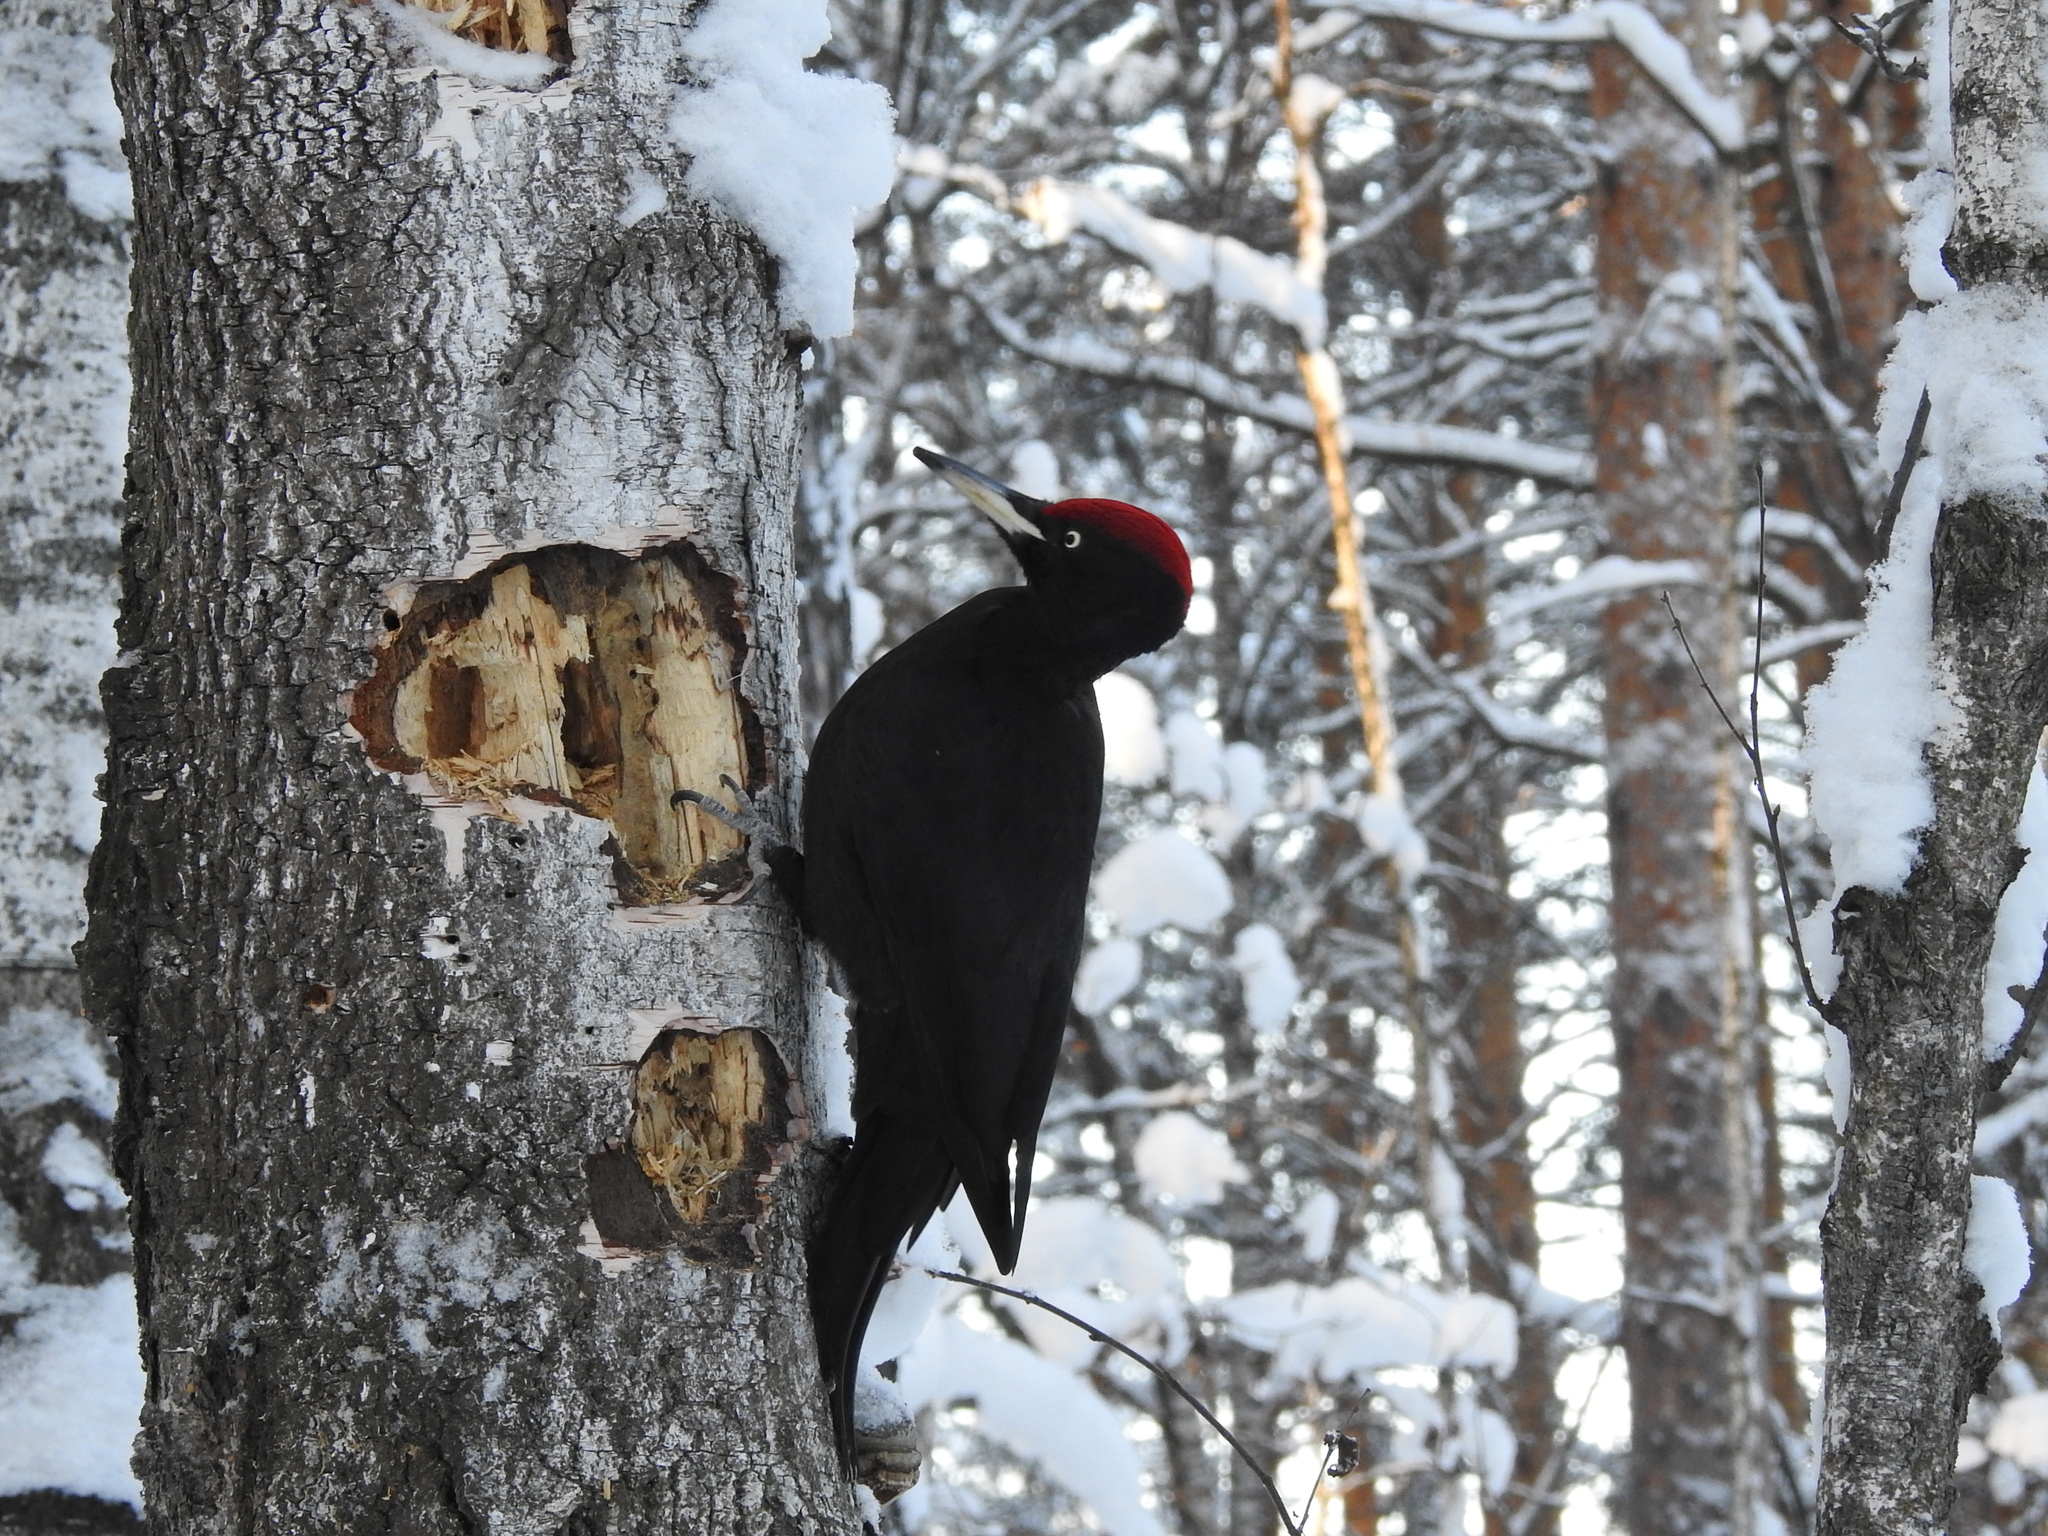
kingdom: Animalia
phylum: Chordata
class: Aves
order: Piciformes
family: Picidae
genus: Dryocopus
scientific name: Dryocopus martius
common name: Black woodpecker
